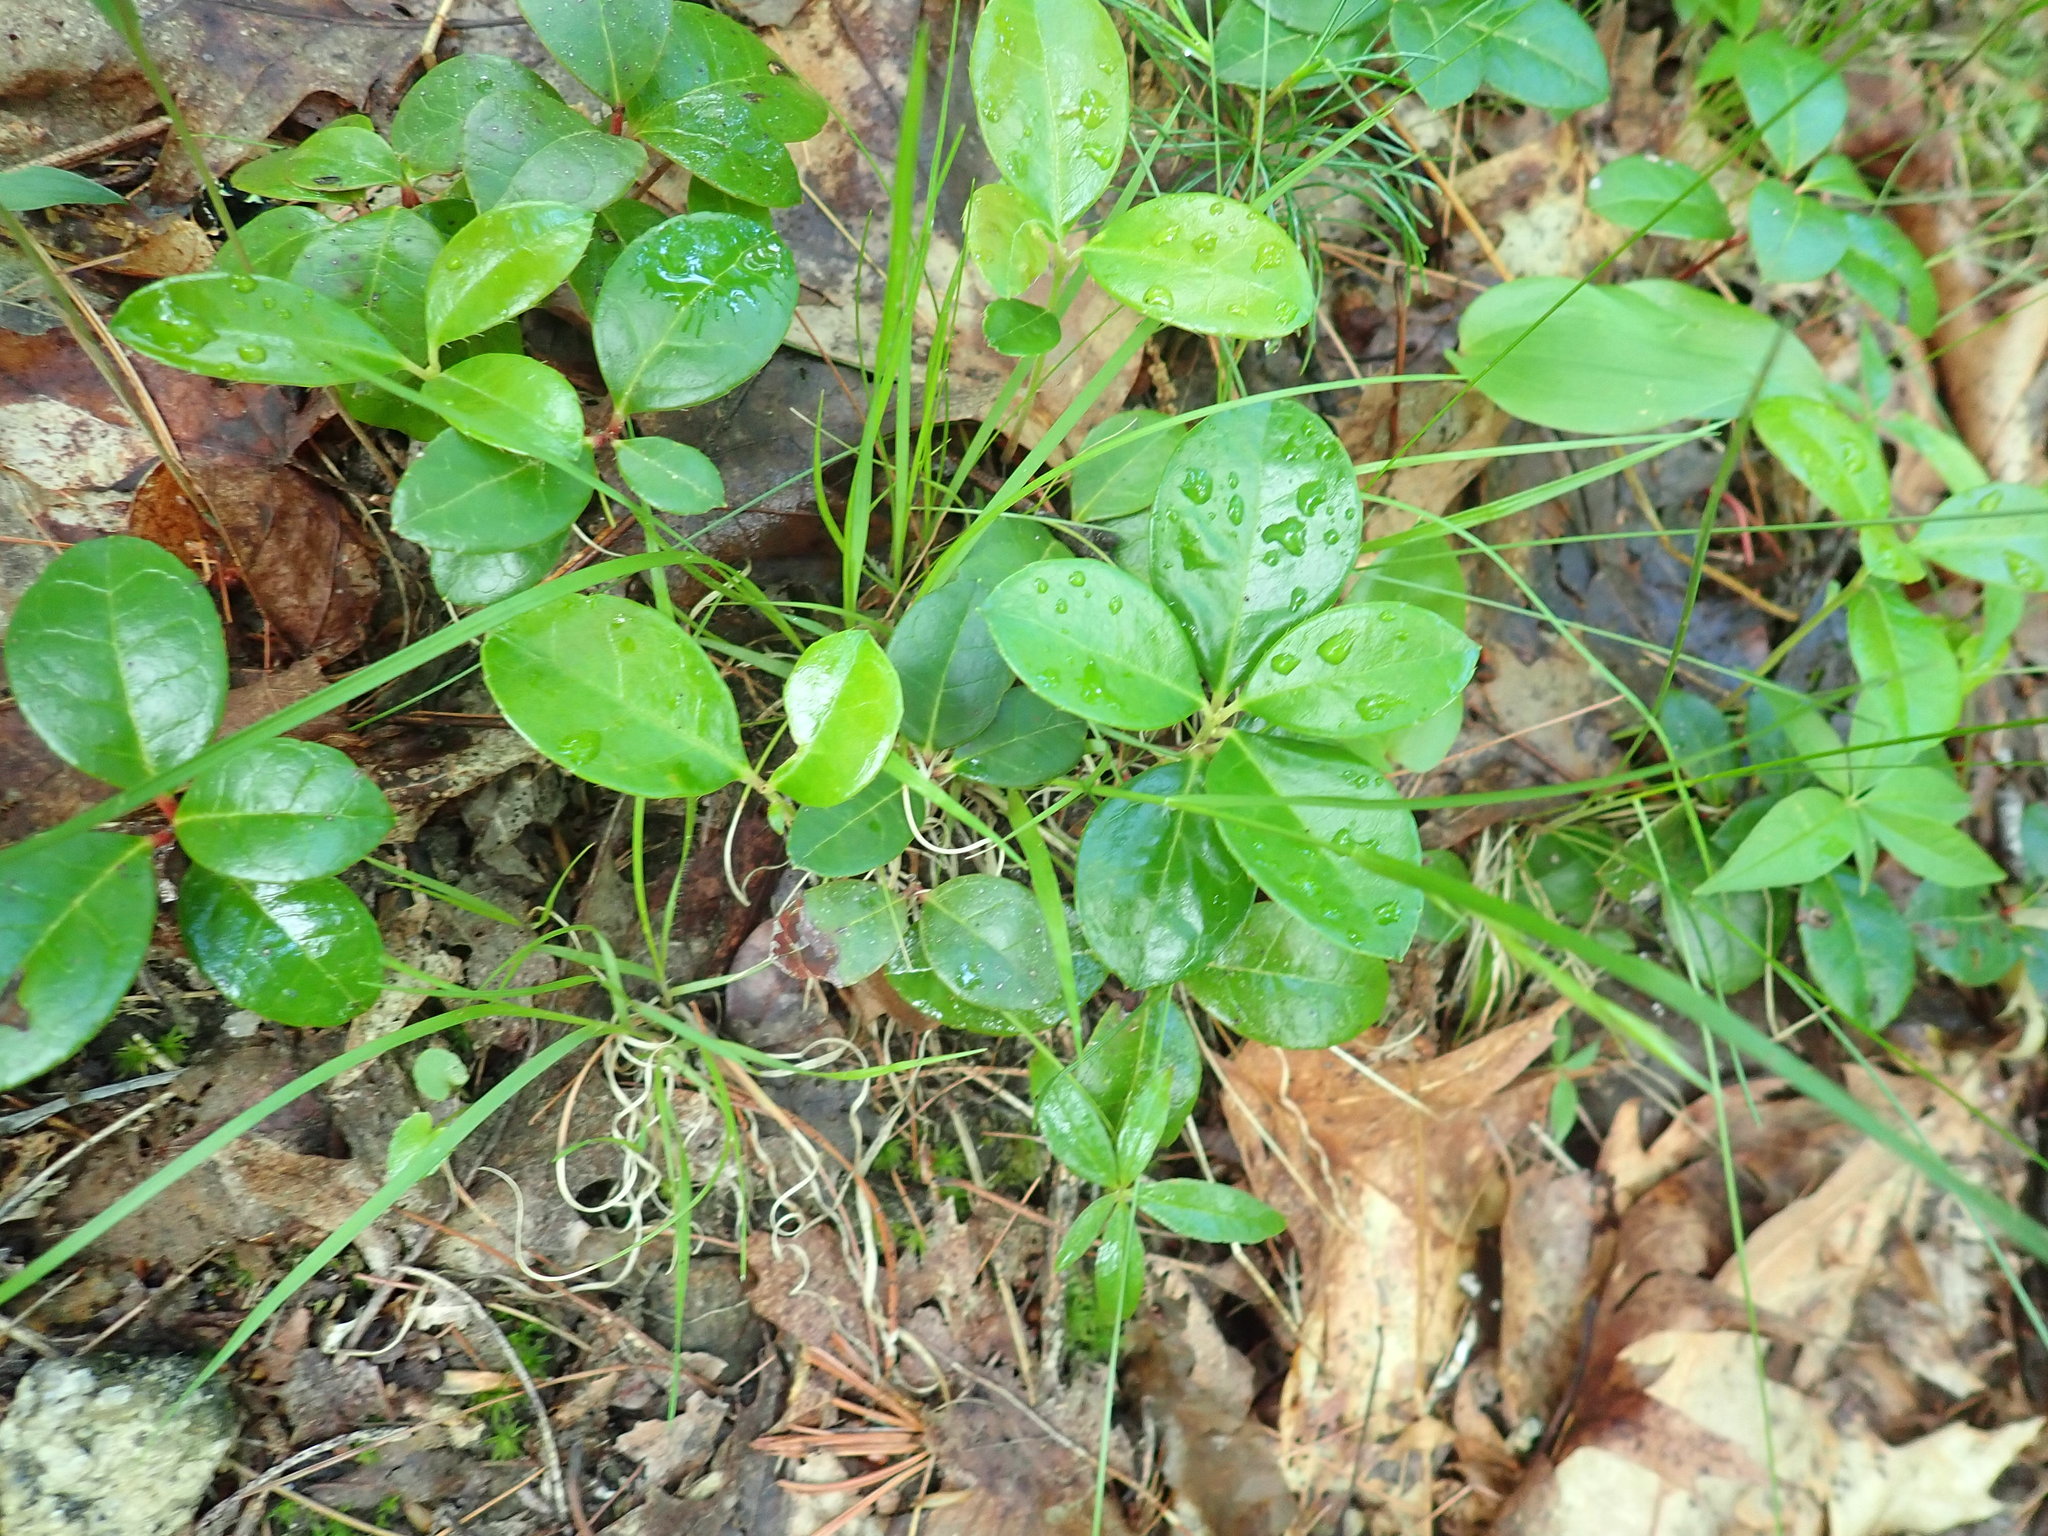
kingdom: Plantae
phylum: Tracheophyta
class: Magnoliopsida
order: Ericales
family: Ericaceae
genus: Gaultheria
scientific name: Gaultheria procumbens
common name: Checkerberry
